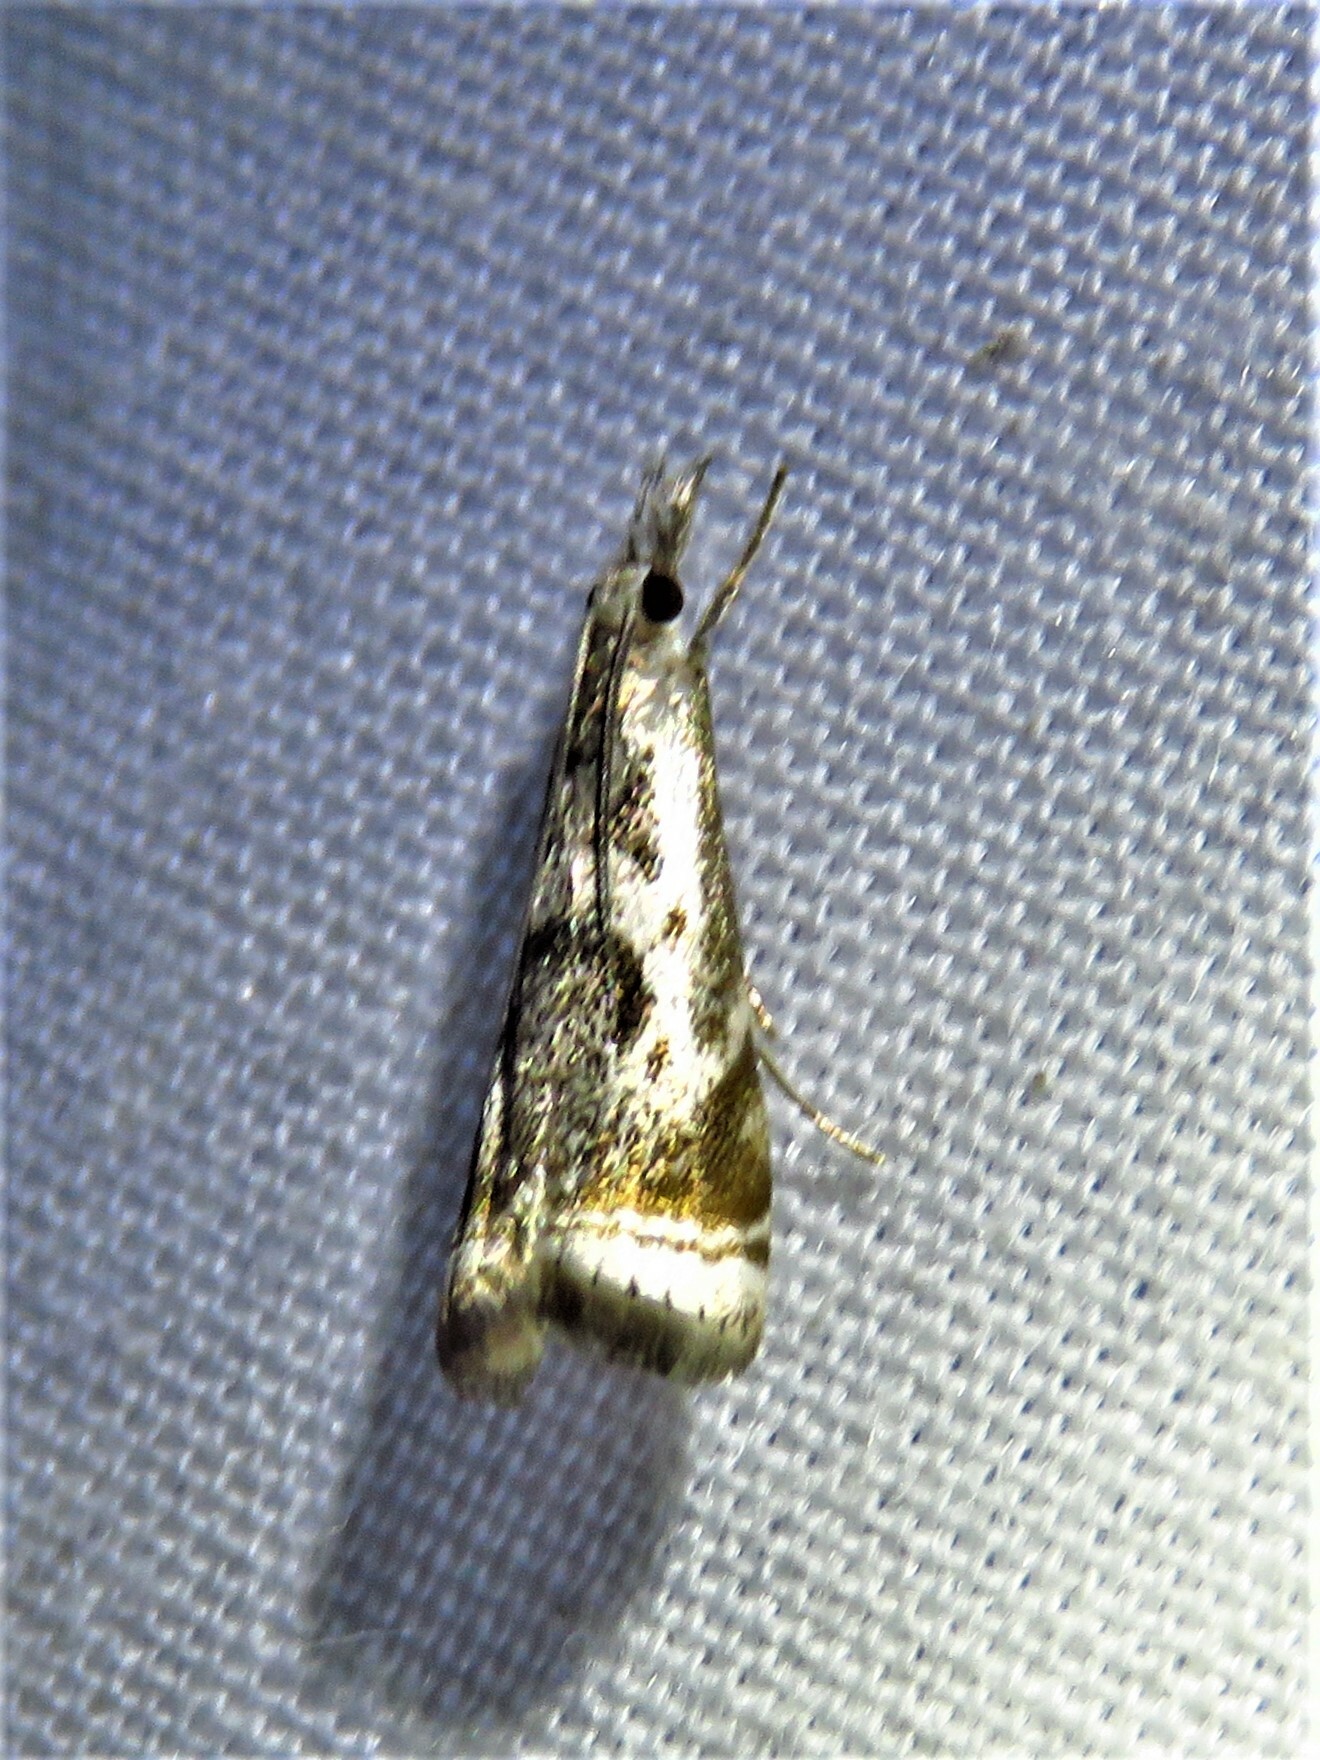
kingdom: Animalia
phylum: Arthropoda
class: Insecta
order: Lepidoptera
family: Crambidae
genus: Microcrambus
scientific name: Microcrambus elegans
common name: Elegant grass-veneer
